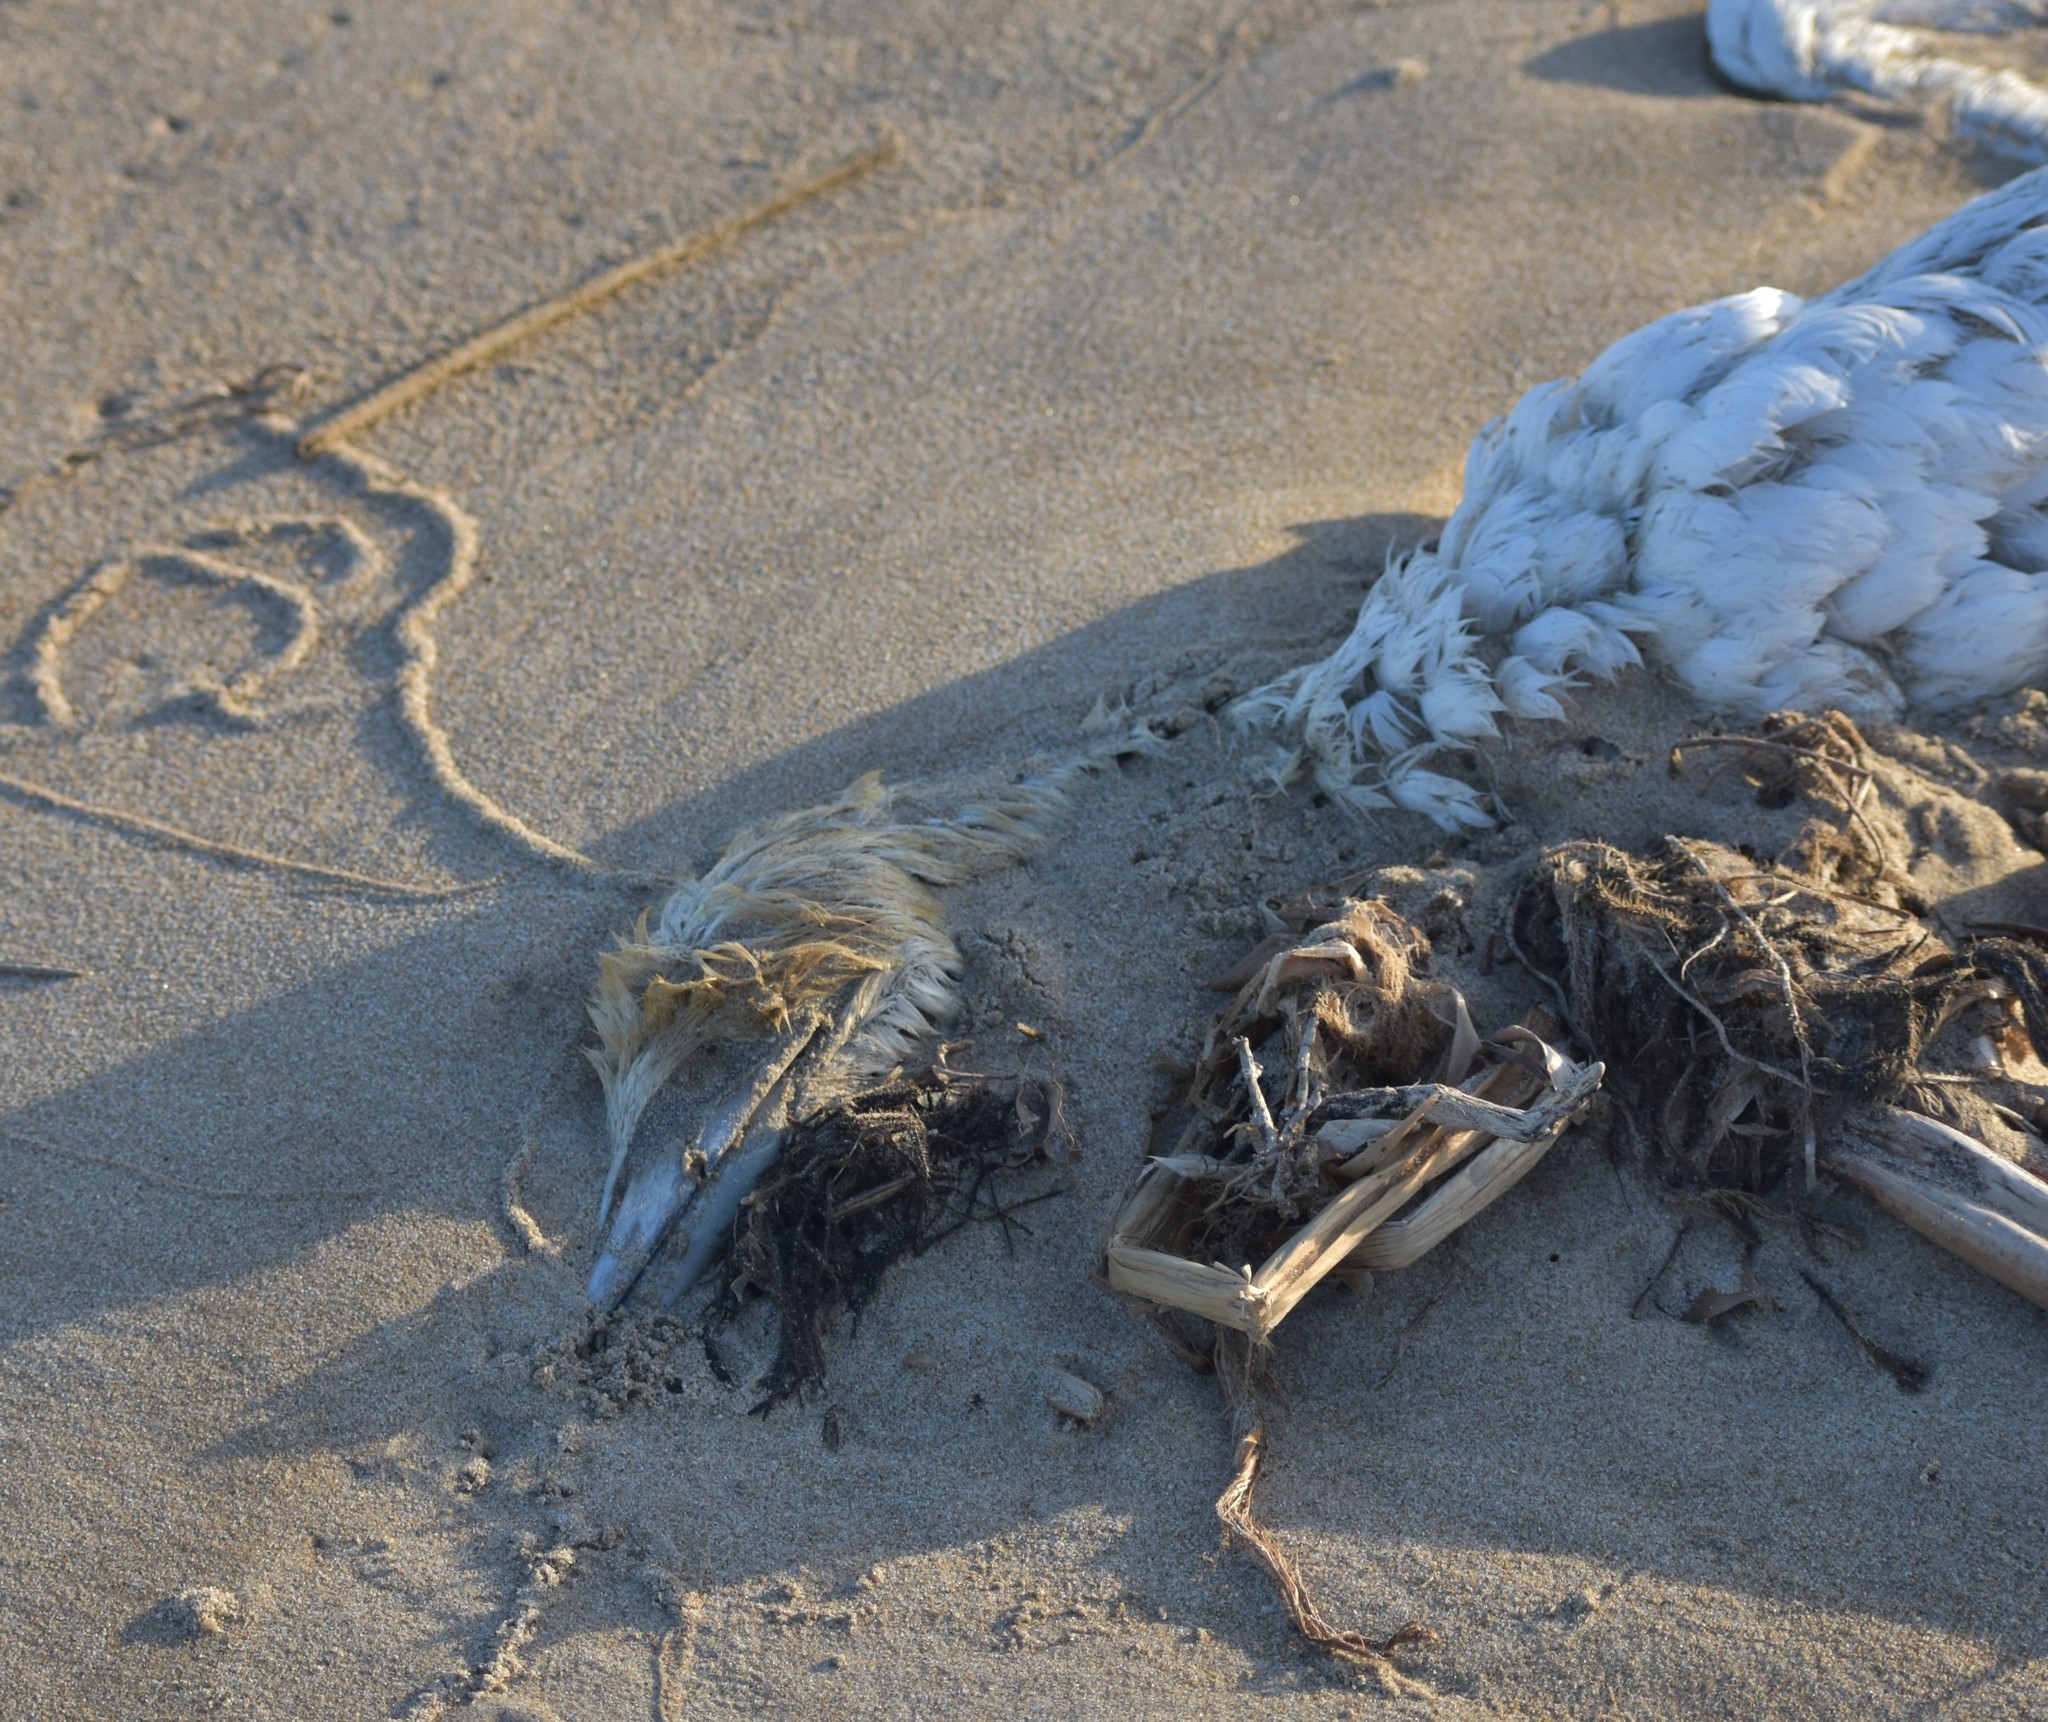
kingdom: Animalia
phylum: Chordata
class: Aves
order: Suliformes
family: Sulidae
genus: Morus
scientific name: Morus capensis
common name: Cape gannet
